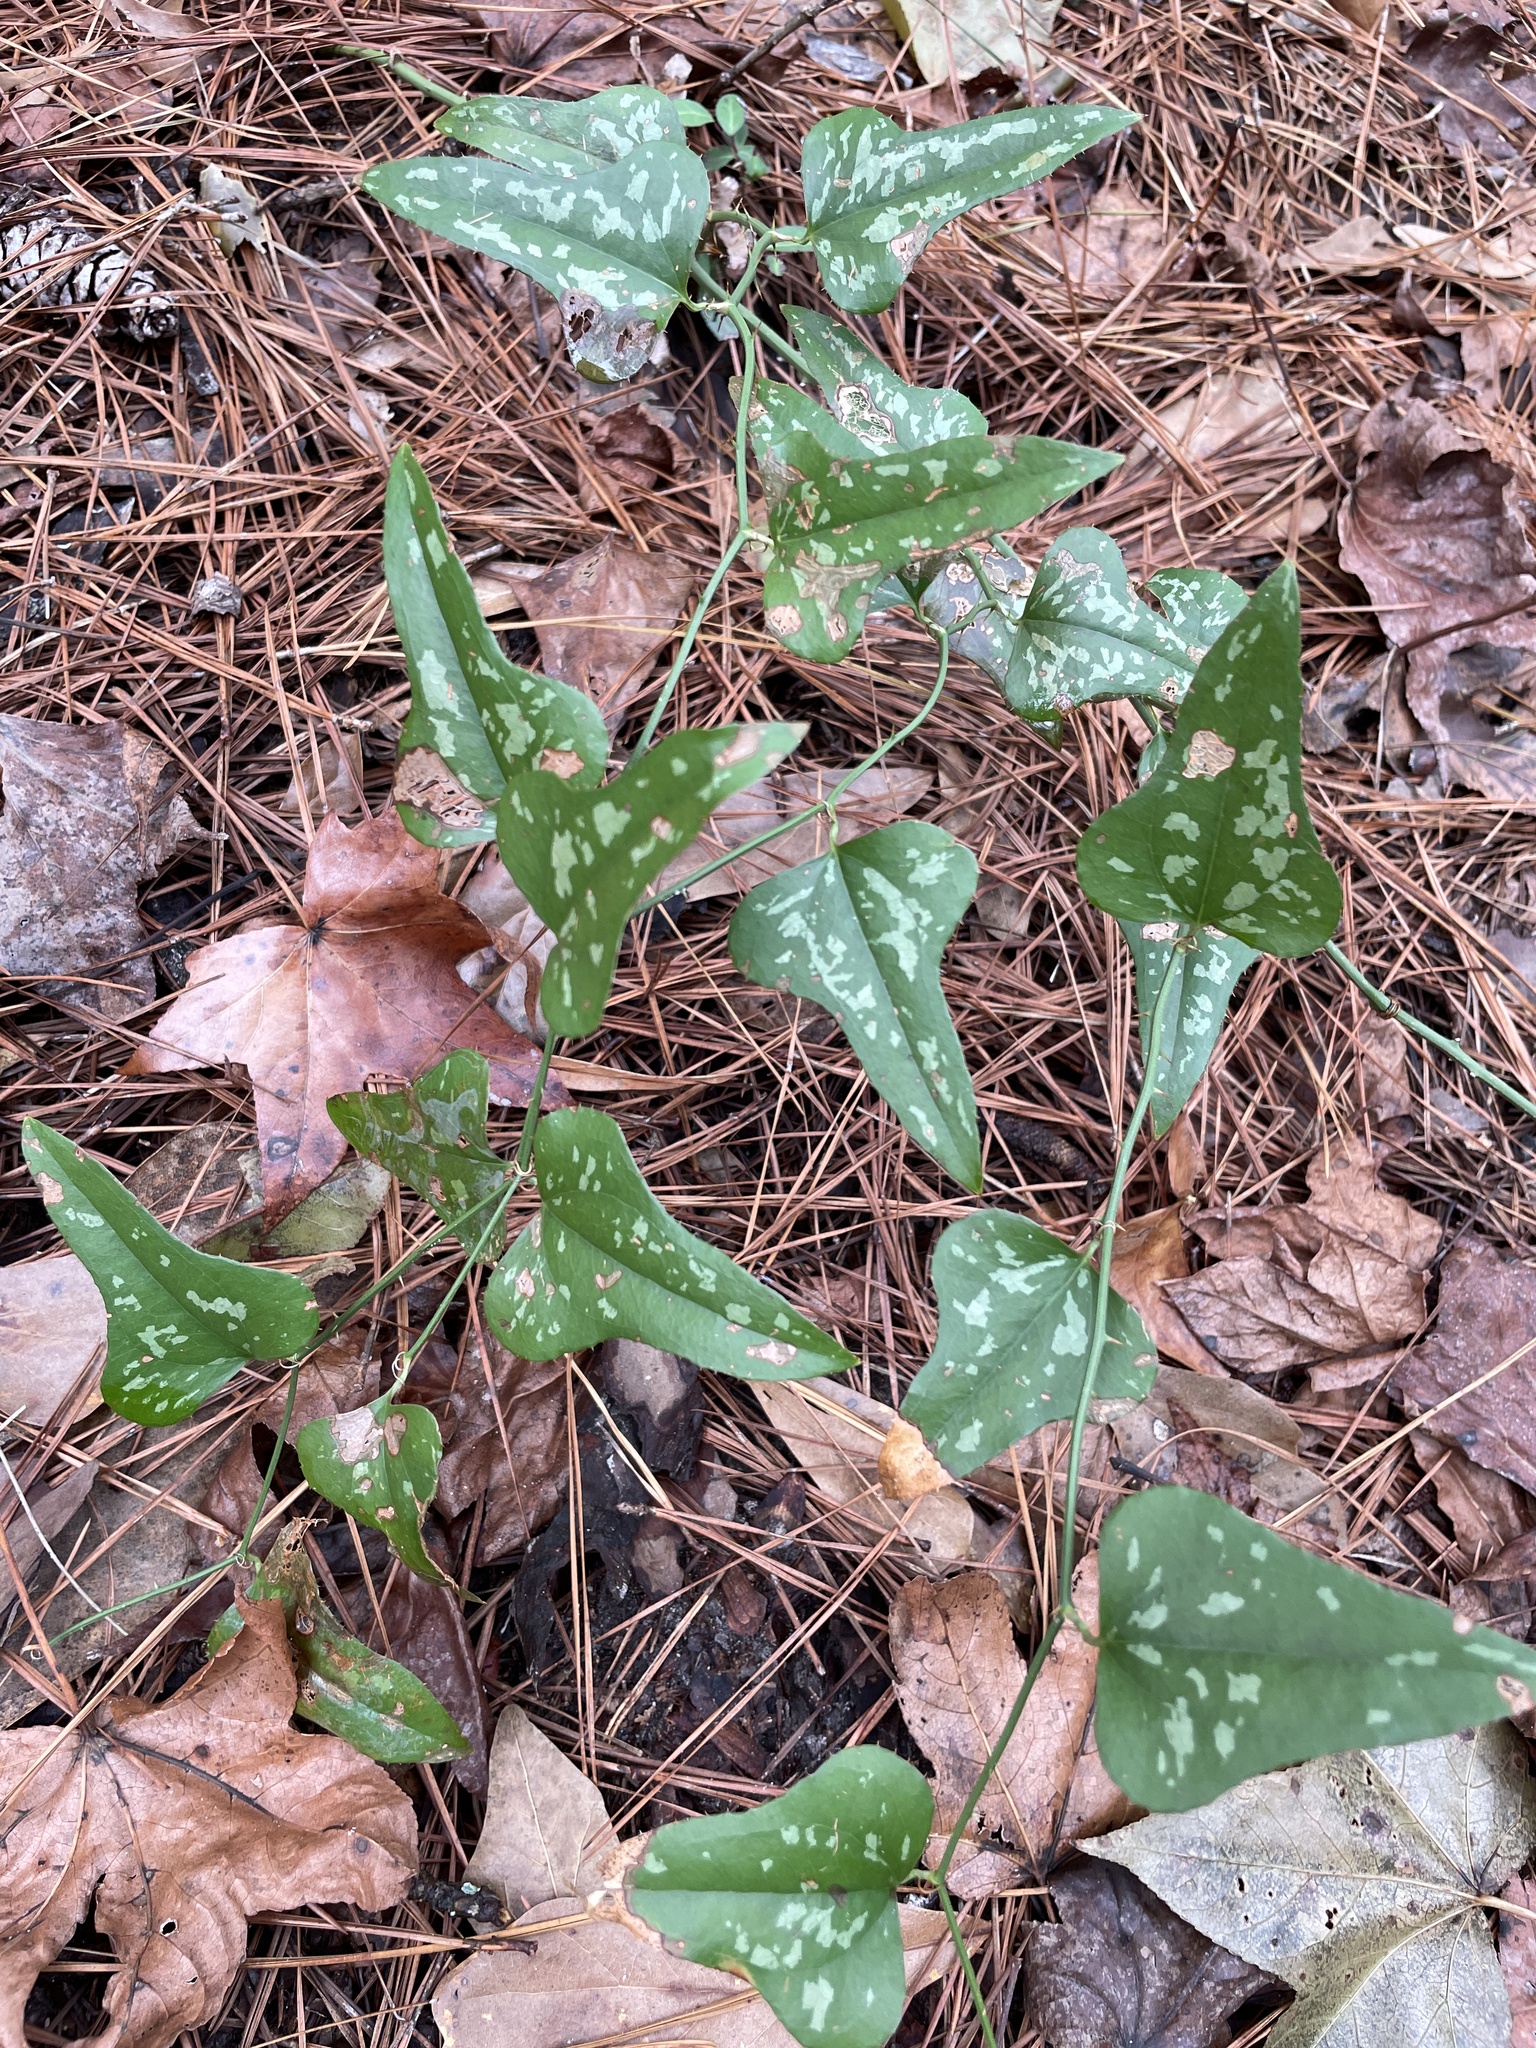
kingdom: Plantae
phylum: Tracheophyta
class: Liliopsida
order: Liliales
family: Smilacaceae
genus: Smilax
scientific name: Smilax bona-nox
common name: Catbrier
